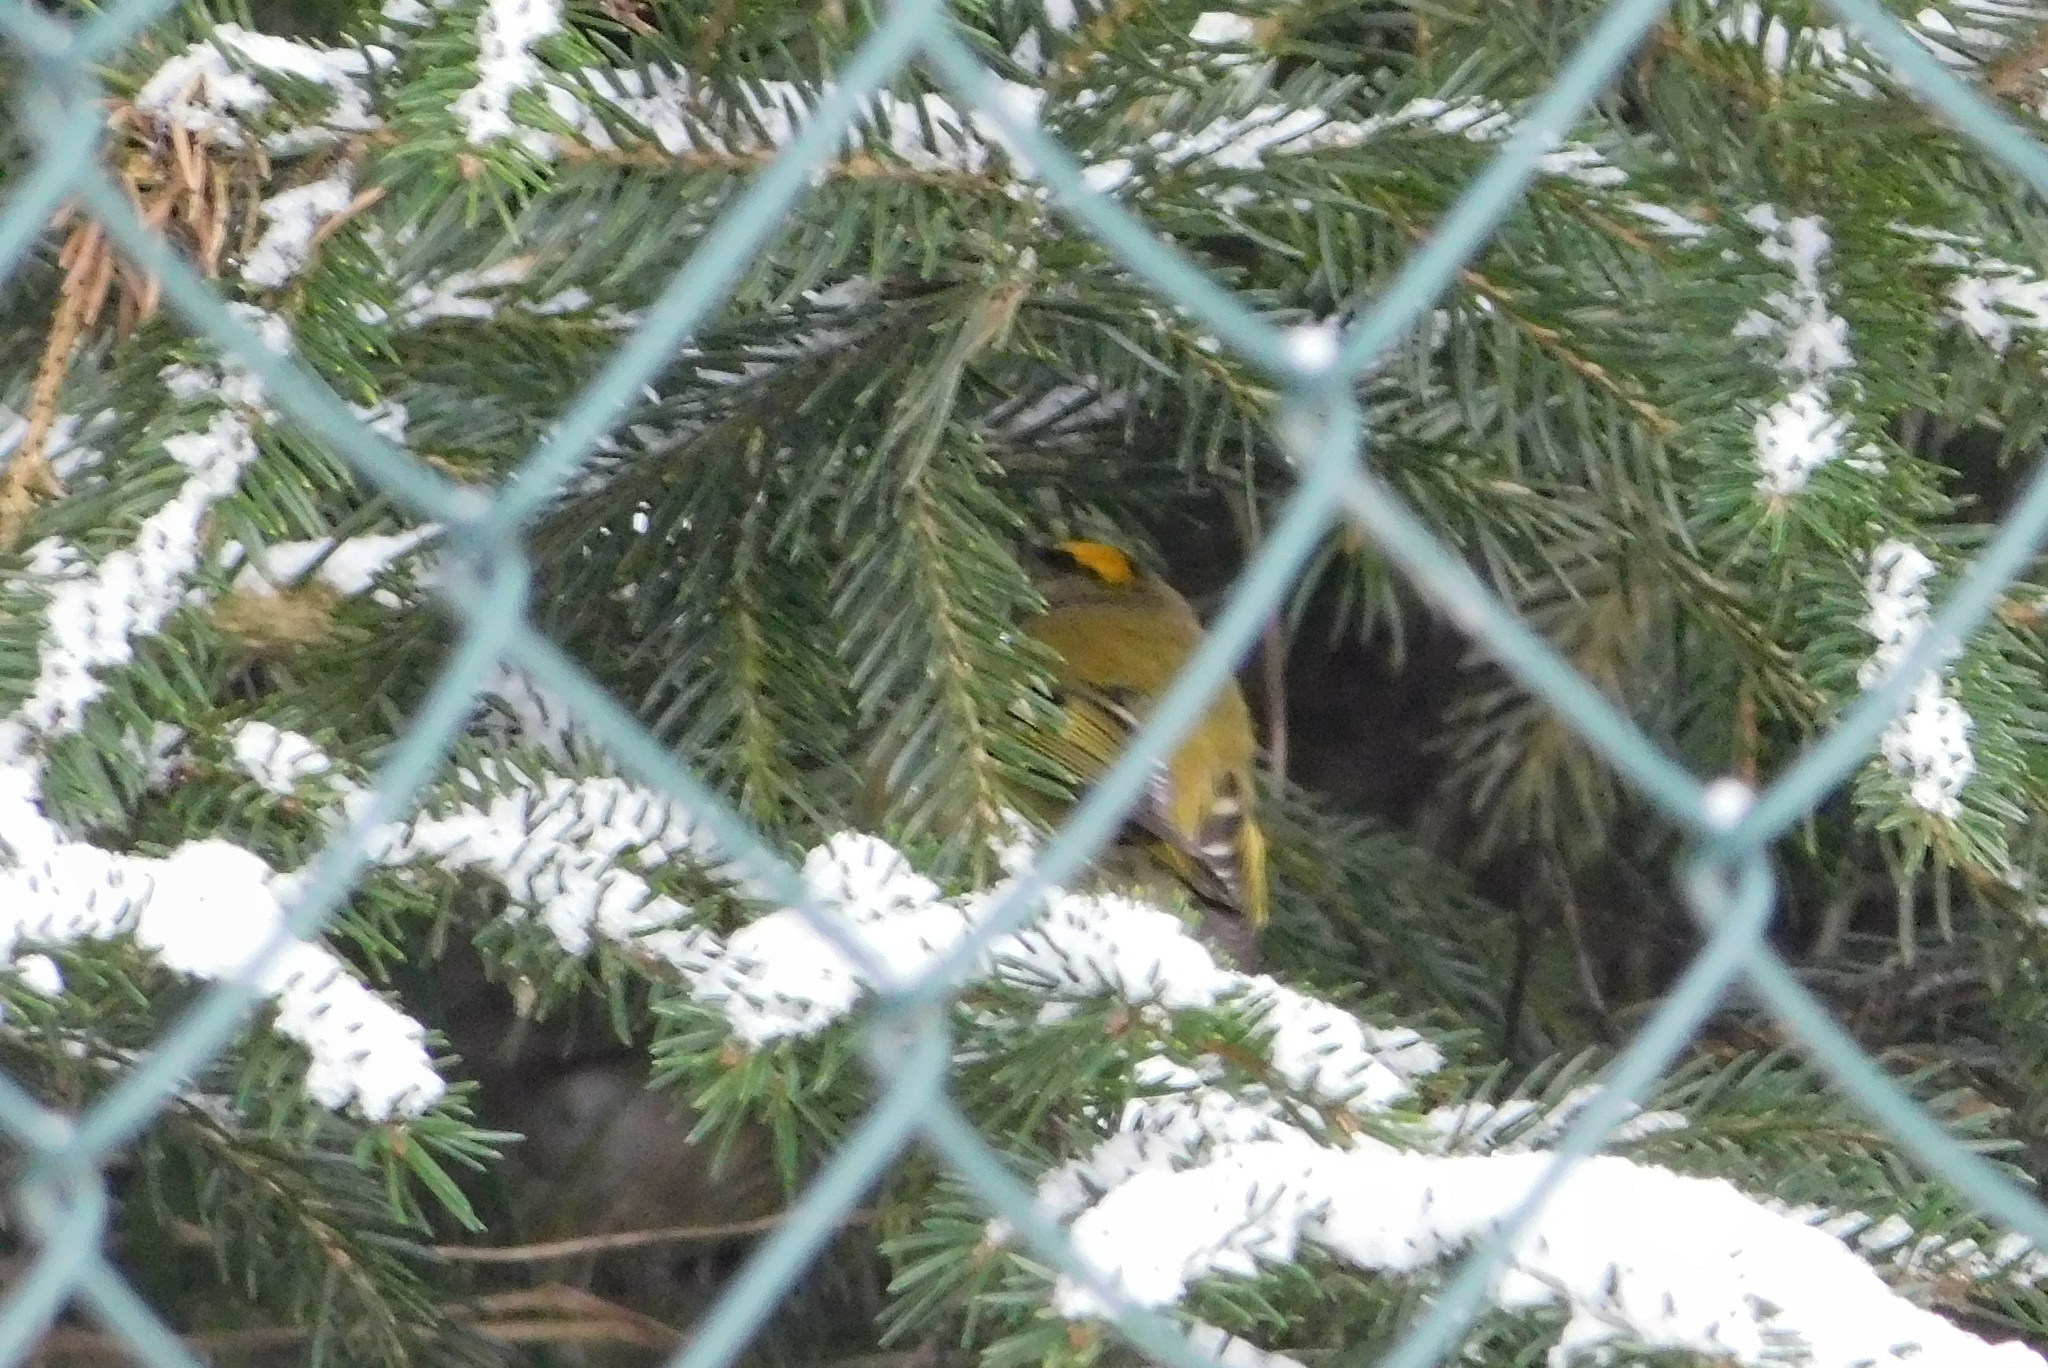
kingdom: Animalia
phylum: Chordata
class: Aves
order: Passeriformes
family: Regulidae
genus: Regulus
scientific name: Regulus regulus
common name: Goldcrest
